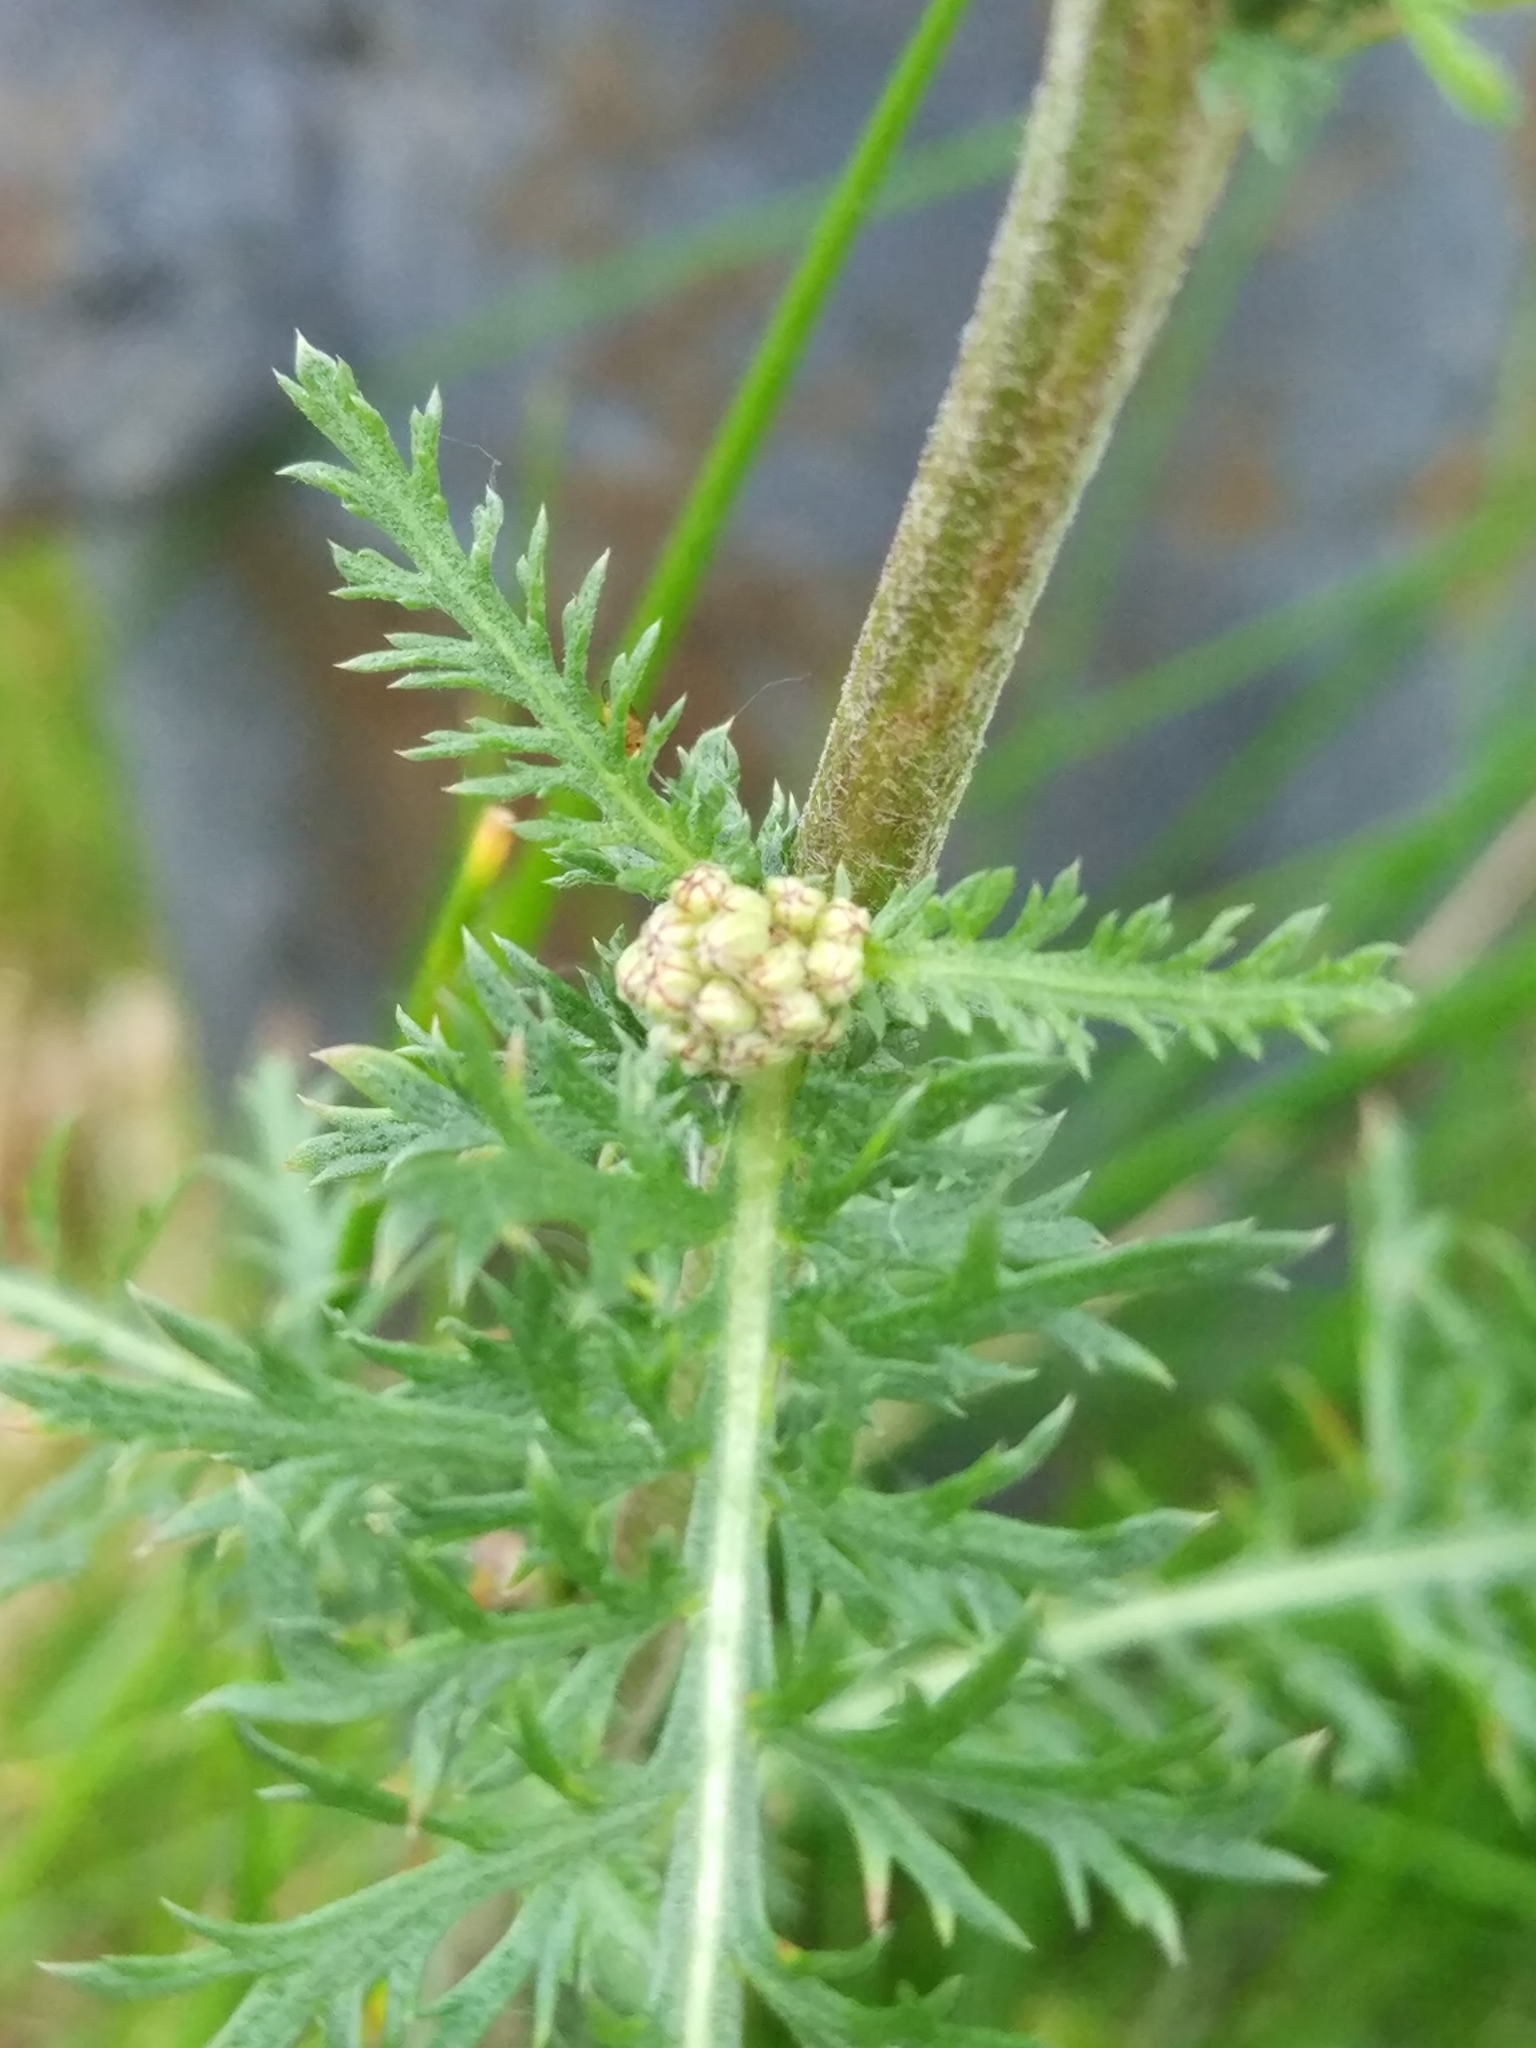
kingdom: Plantae
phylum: Tracheophyta
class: Magnoliopsida
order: Asterales
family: Asteraceae
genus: Achillea
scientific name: Achillea millefolium
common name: Yarrow
